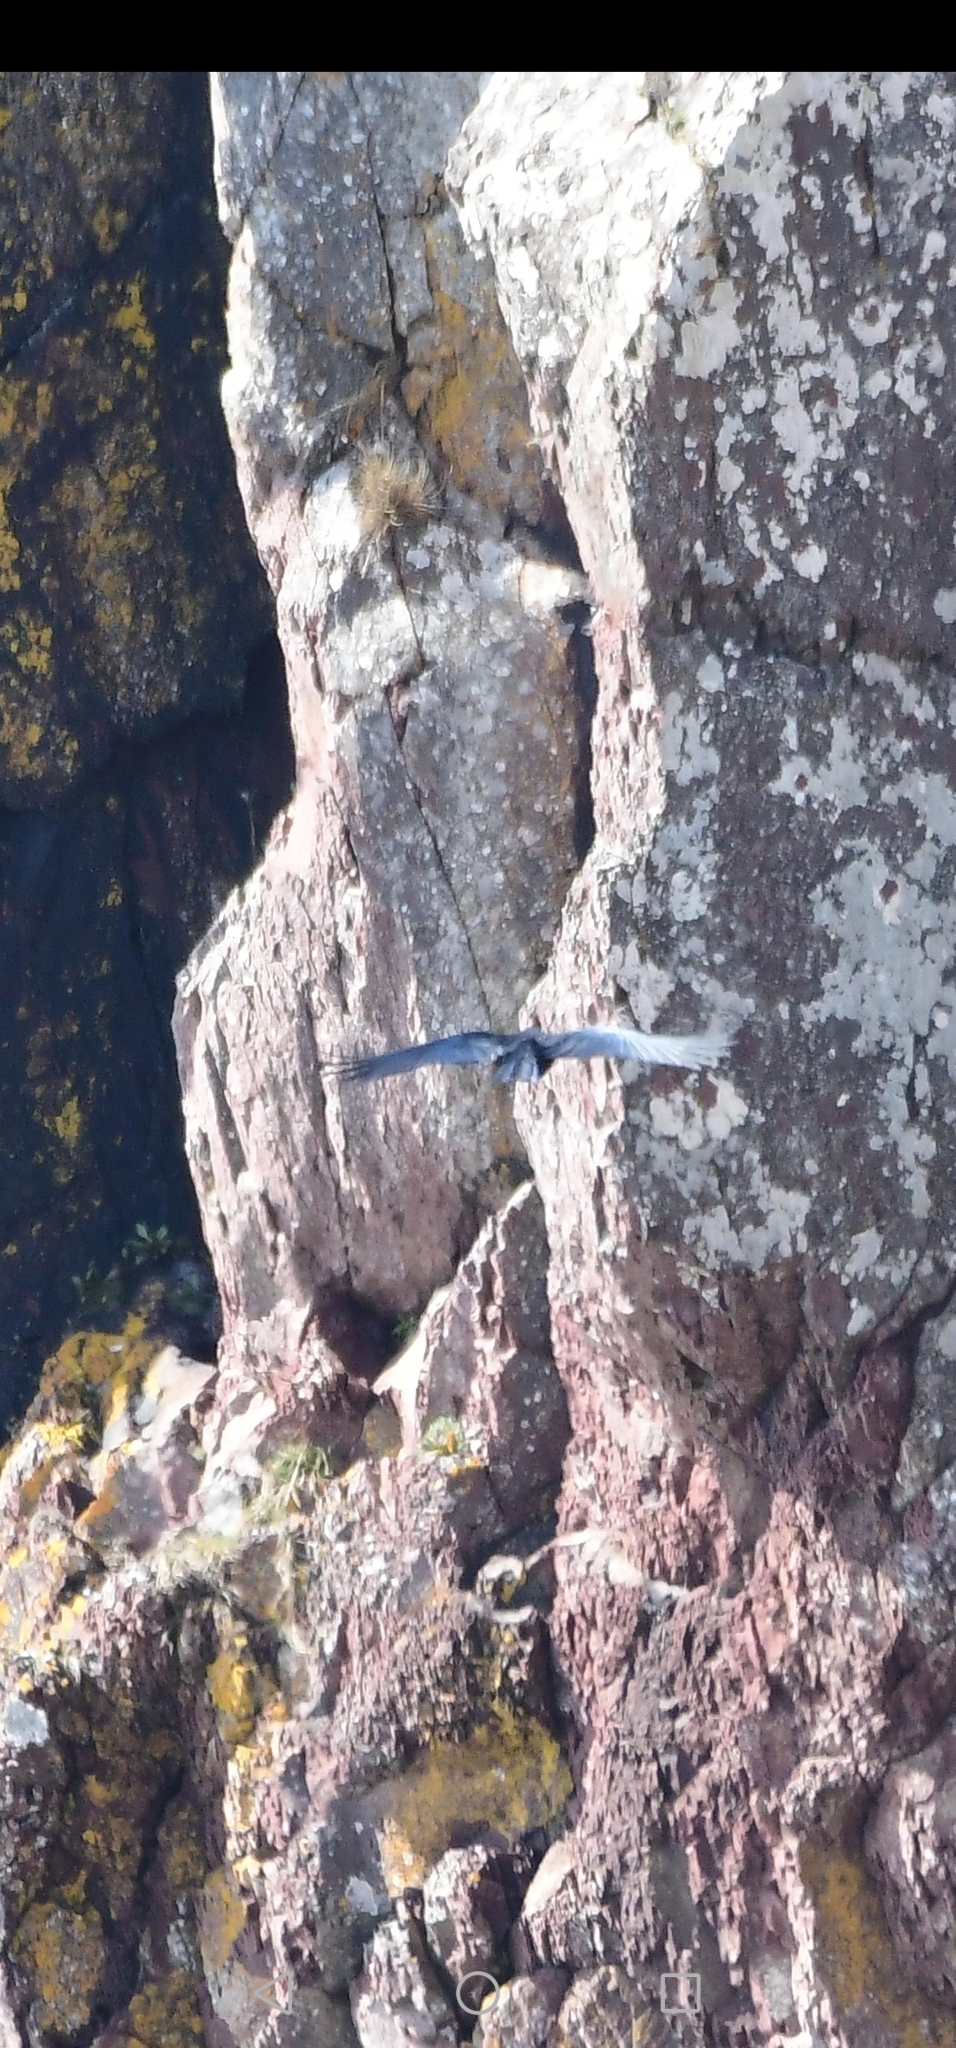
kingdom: Animalia
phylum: Chordata
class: Aves
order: Passeriformes
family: Corvidae
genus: Pyrrhocorax
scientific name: Pyrrhocorax pyrrhocorax
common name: Red-billed chough
